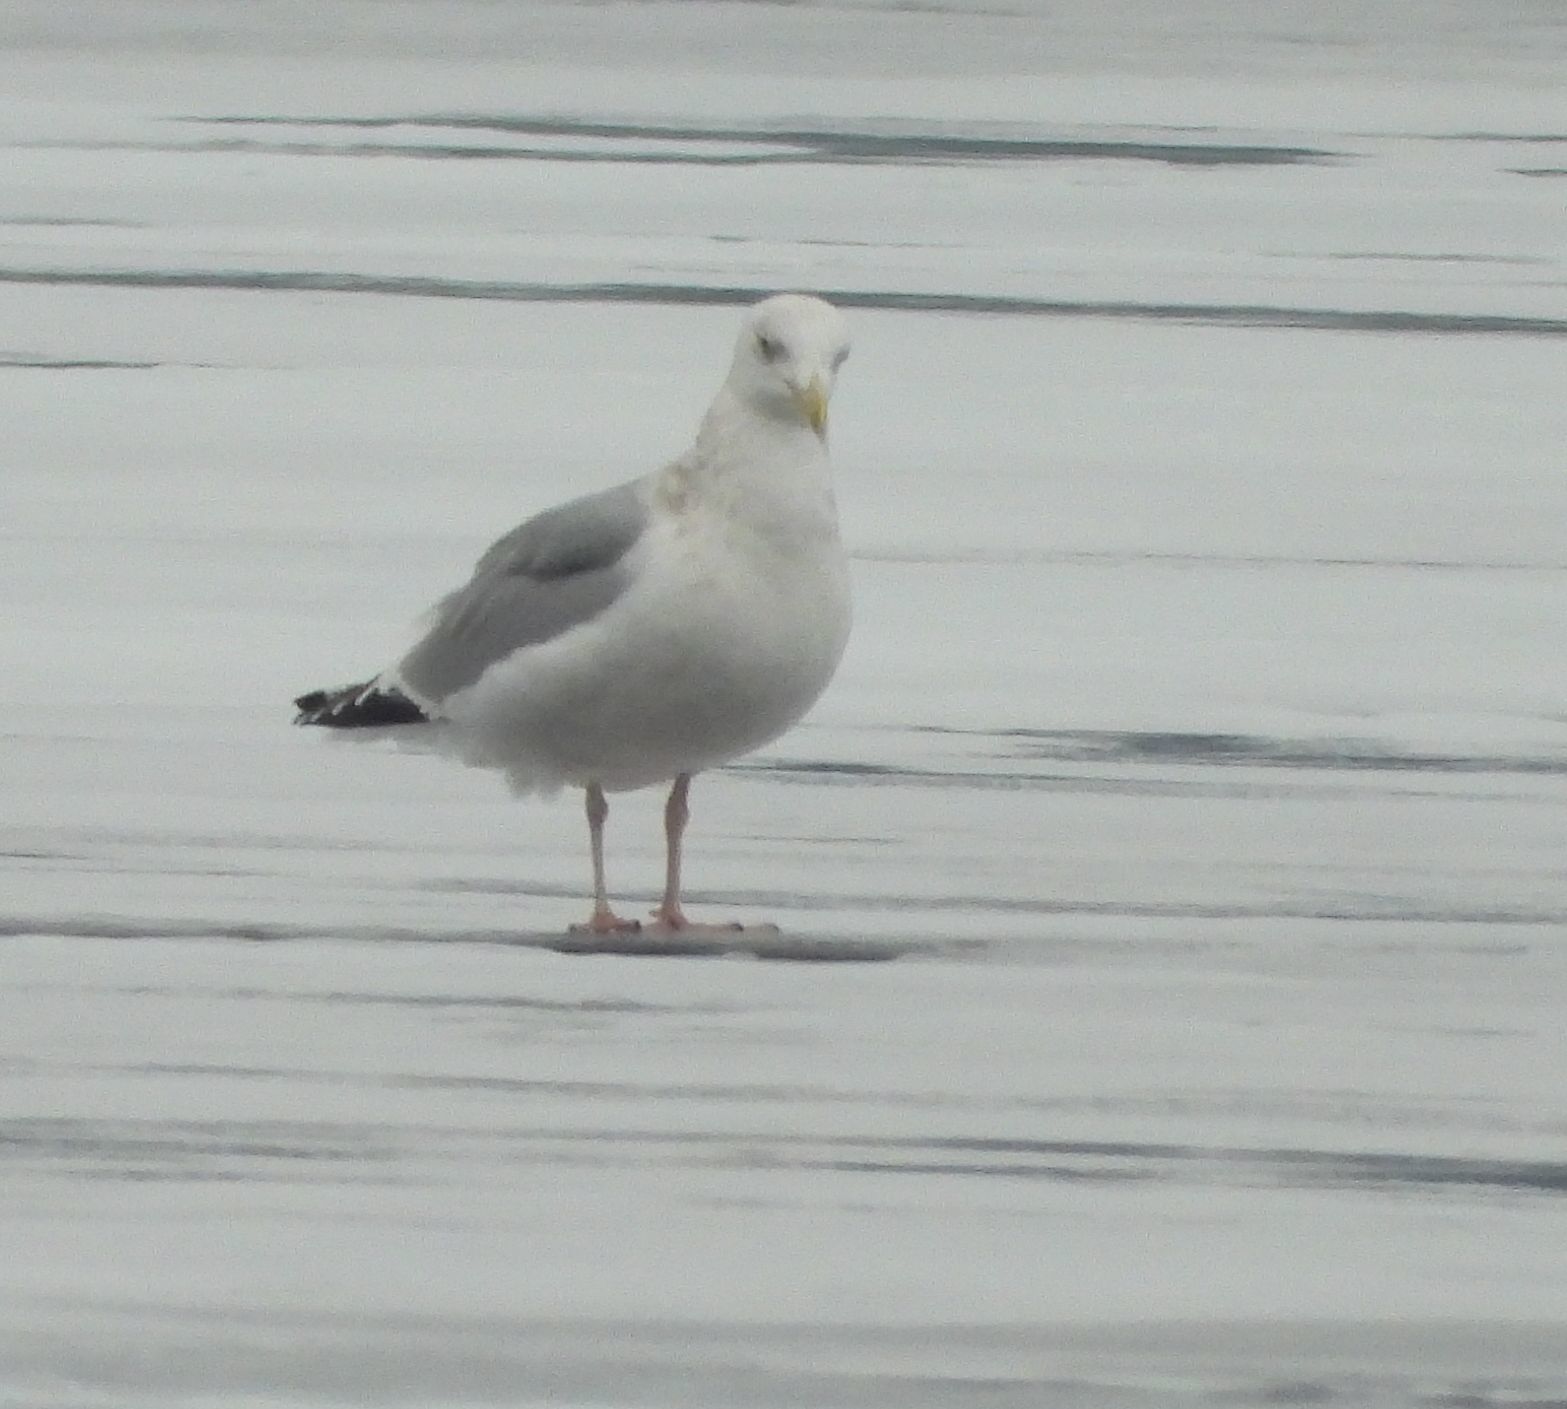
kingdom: Animalia
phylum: Chordata
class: Aves
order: Charadriiformes
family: Laridae
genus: Larus
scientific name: Larus argentatus
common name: Herring gull
